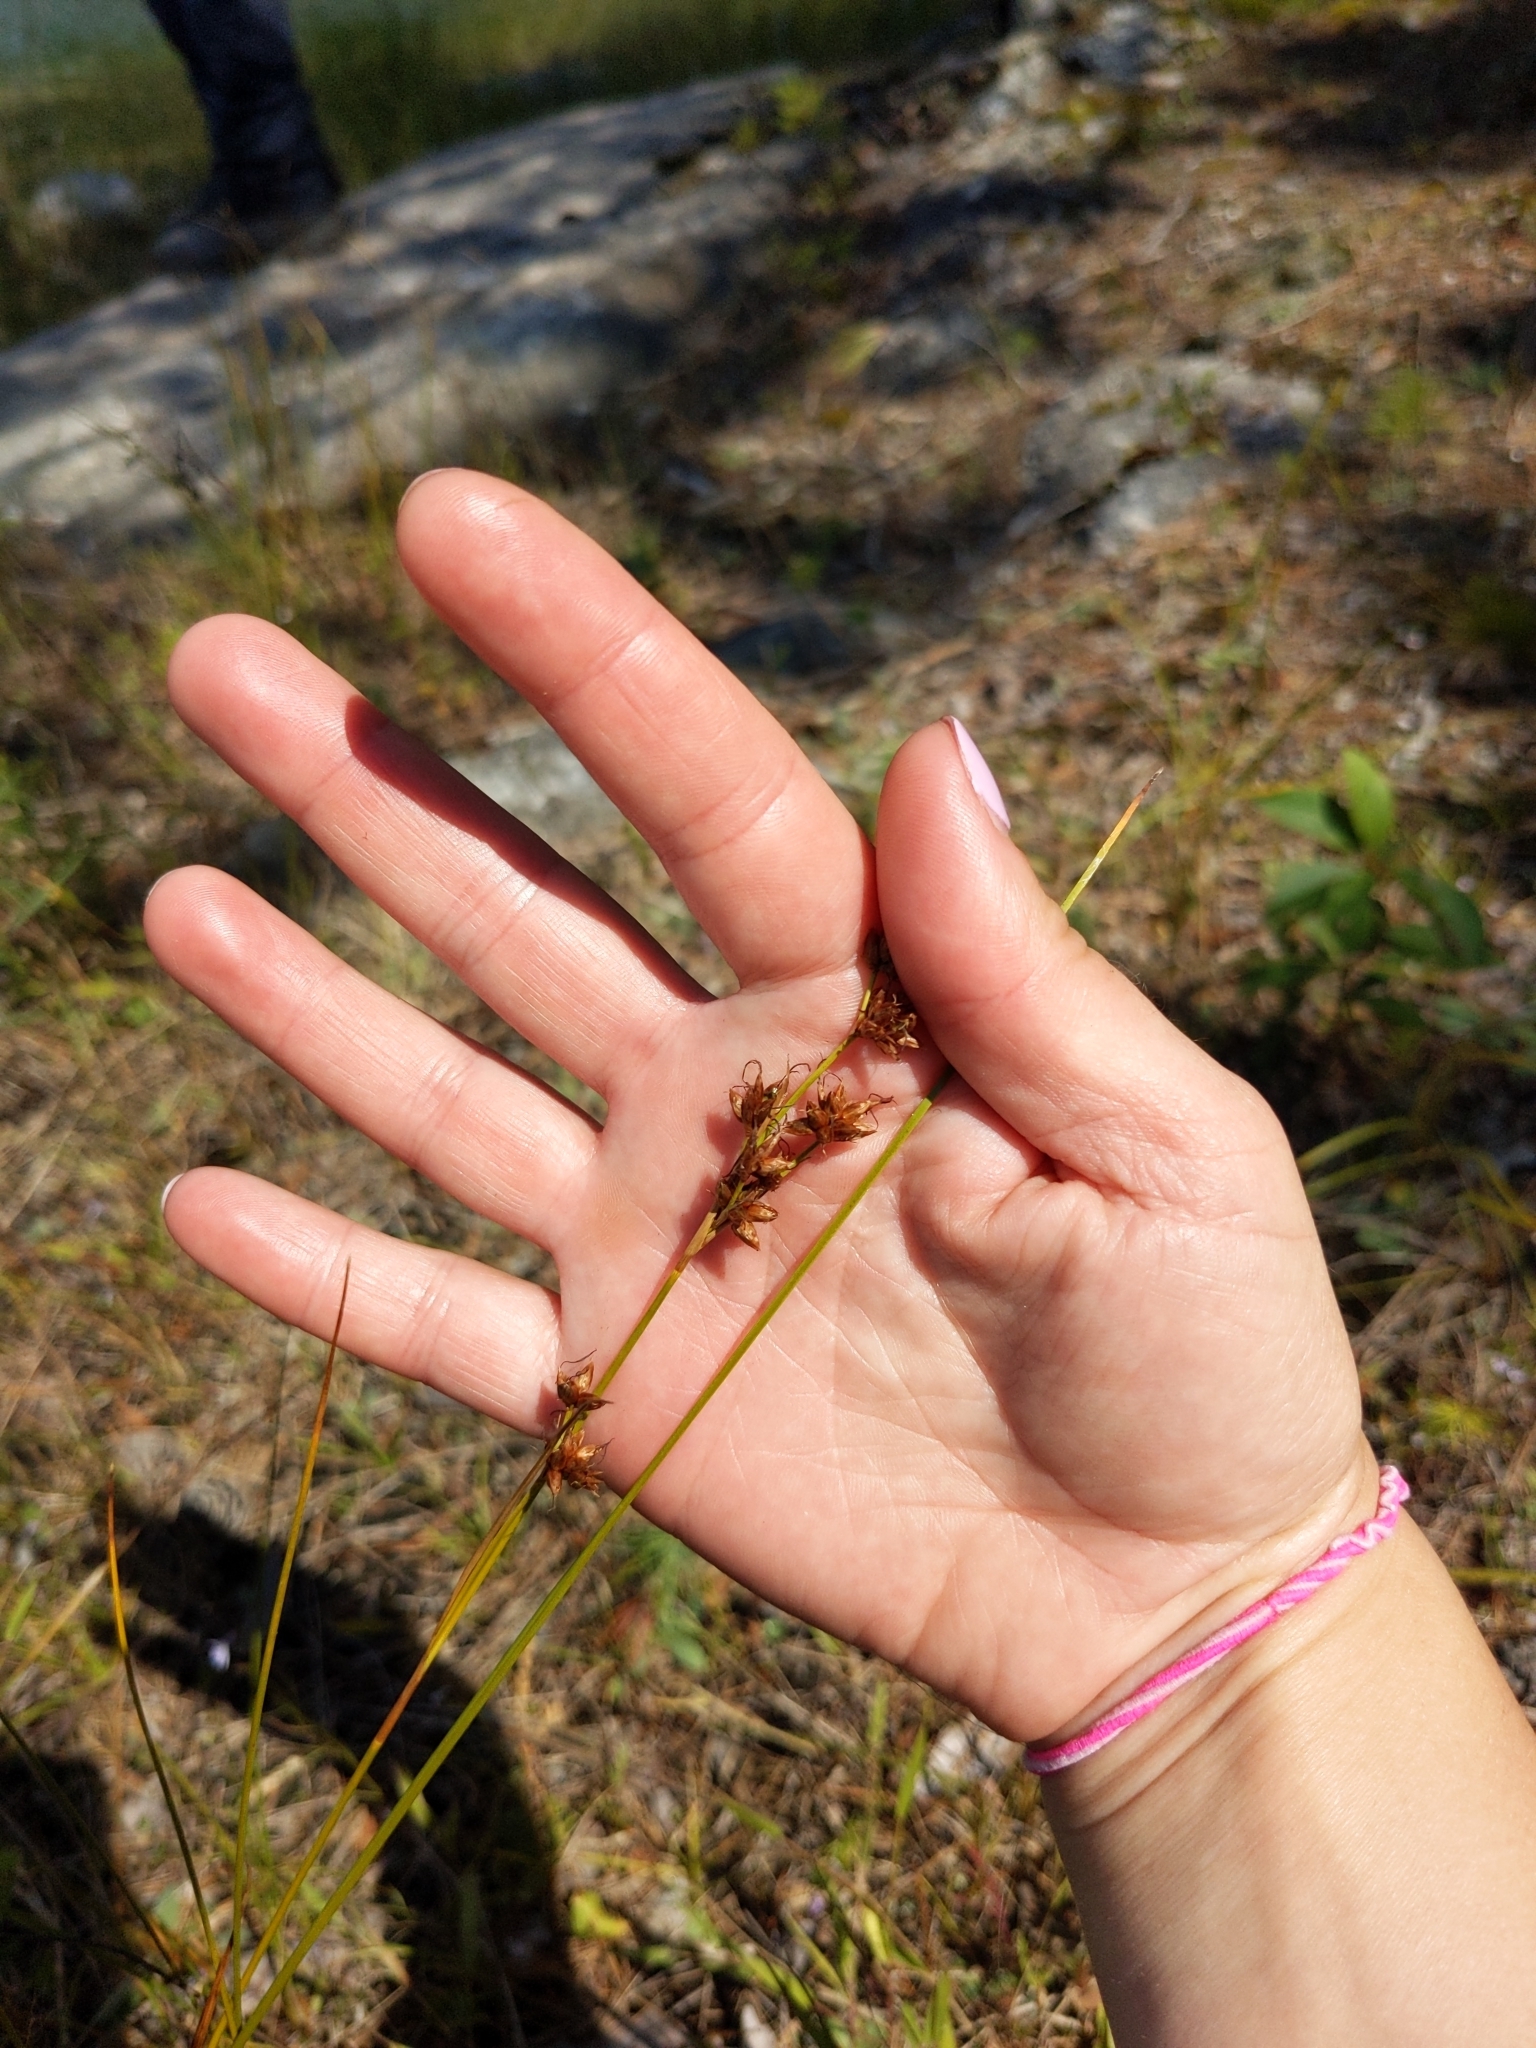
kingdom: Plantae
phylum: Tracheophyta
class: Liliopsida
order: Poales
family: Cyperaceae
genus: Cladium
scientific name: Cladium mariscoides
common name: Smooth sawgrass
